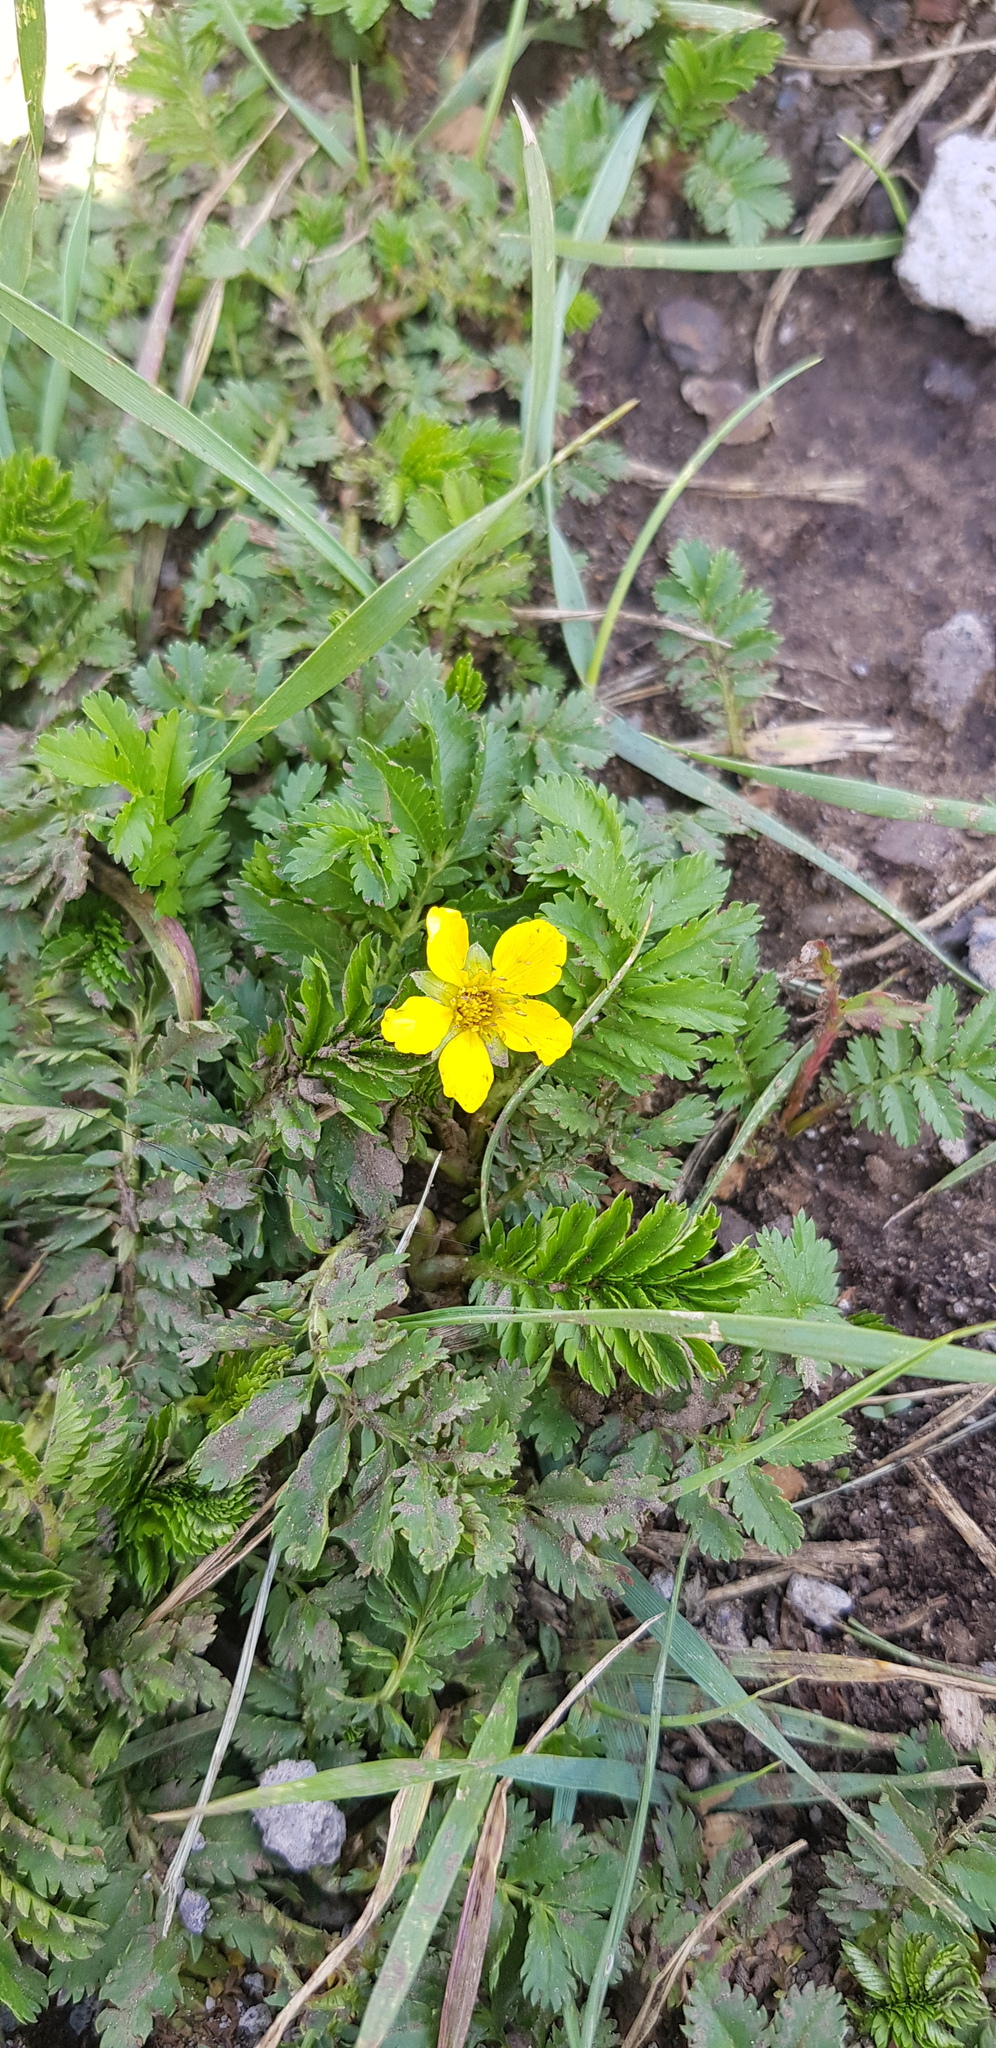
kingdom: Plantae
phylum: Tracheophyta
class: Magnoliopsida
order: Rosales
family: Rosaceae
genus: Argentina
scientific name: Argentina anserina
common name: Common silverweed
